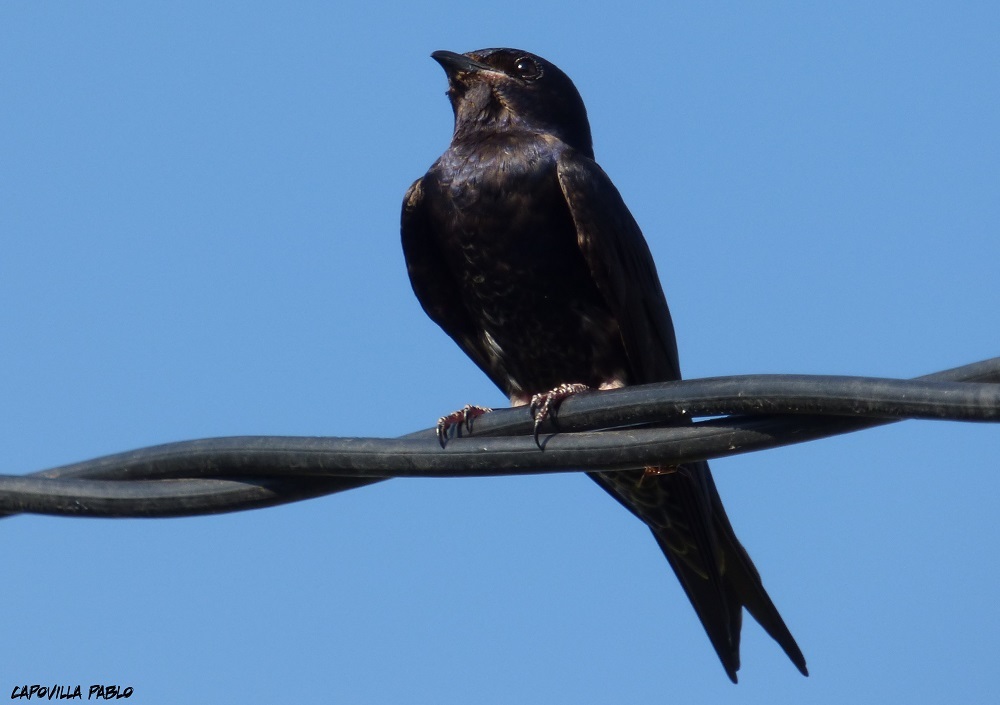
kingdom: Animalia
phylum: Chordata
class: Aves
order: Passeriformes
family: Hirundinidae
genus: Progne
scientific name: Progne elegans
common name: Southern martin
